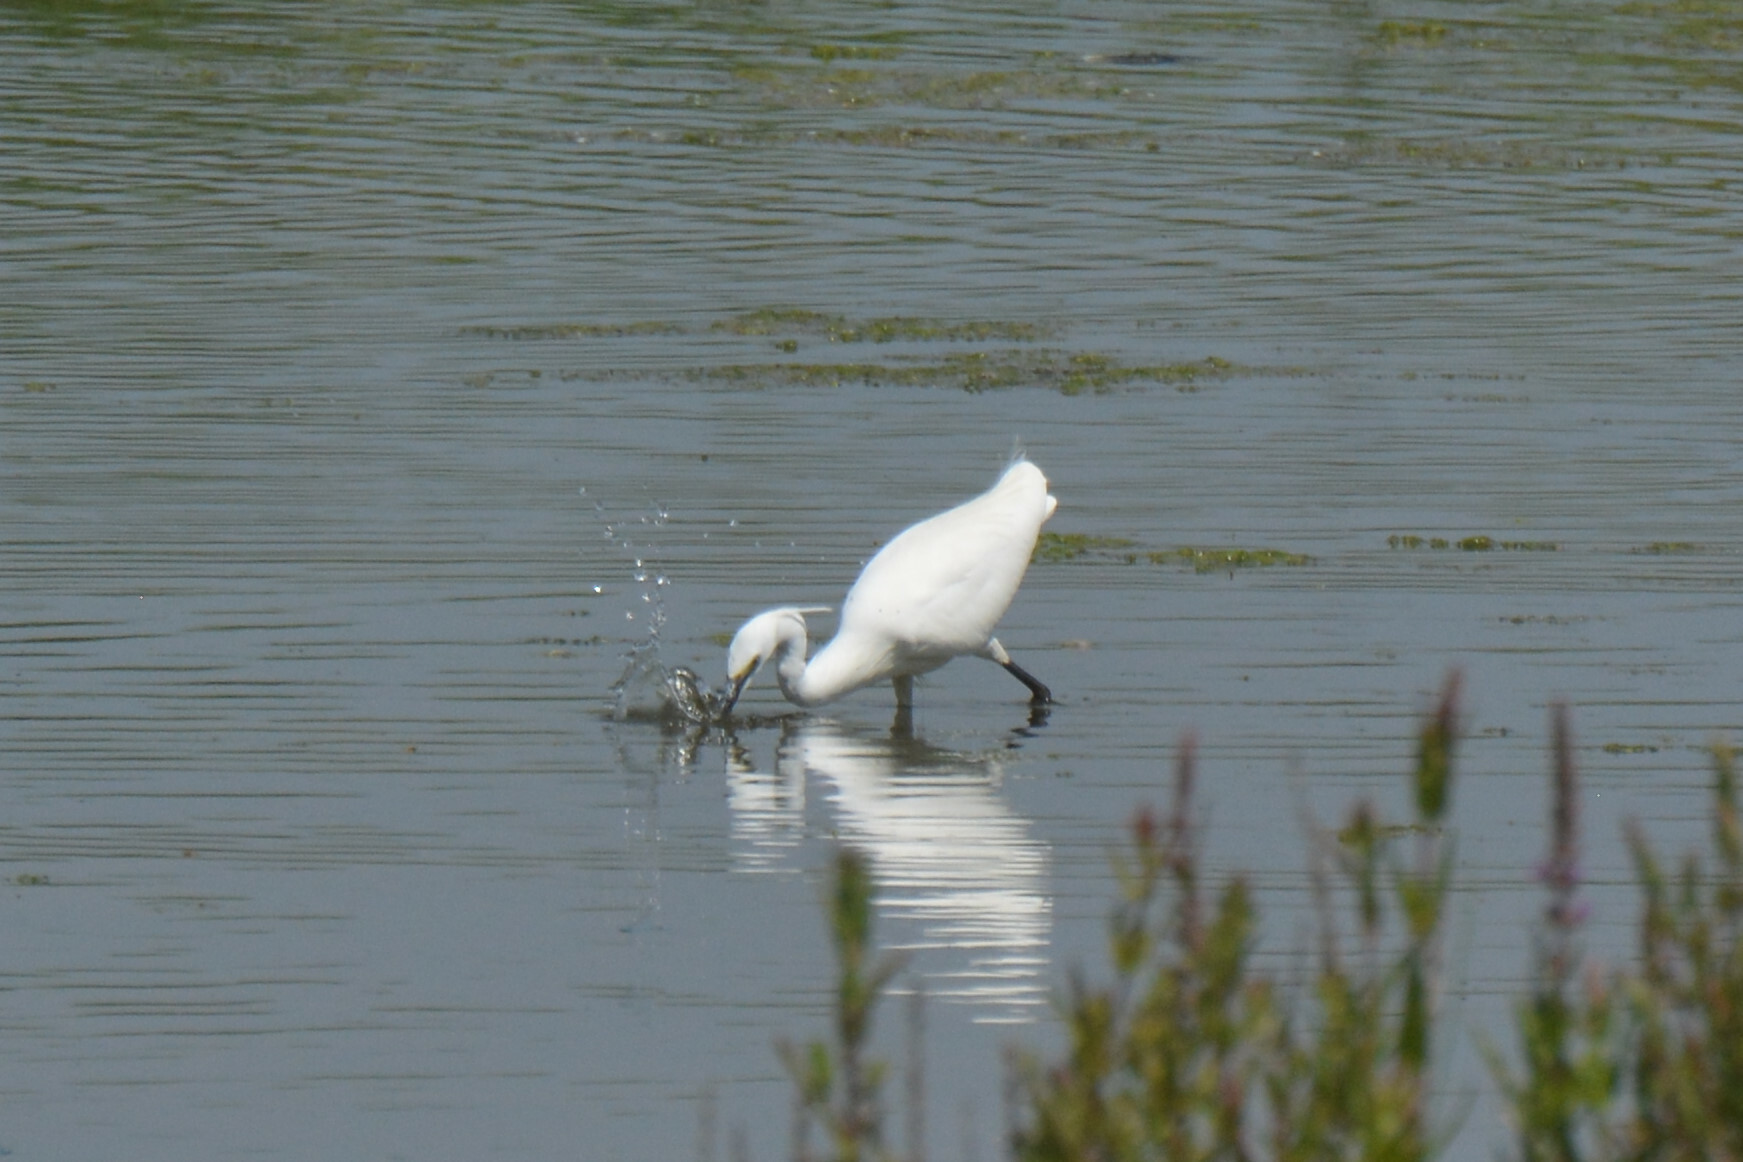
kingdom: Animalia
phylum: Chordata
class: Aves
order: Pelecaniformes
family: Ardeidae
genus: Egretta
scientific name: Egretta garzetta
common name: Little egret
